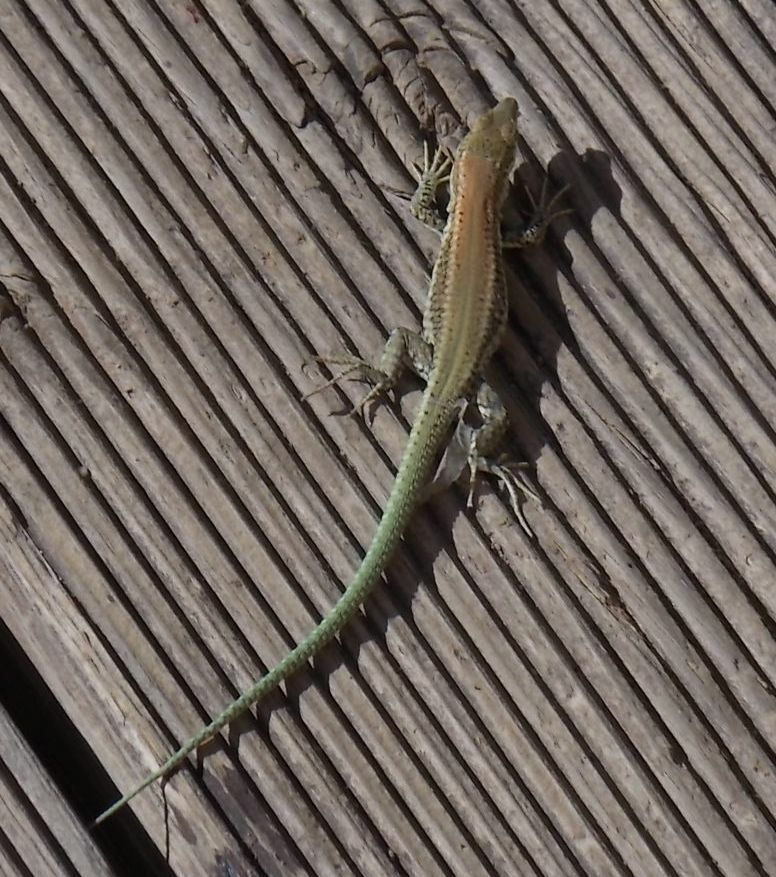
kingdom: Animalia
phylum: Chordata
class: Squamata
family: Lacertidae
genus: Podarcis
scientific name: Podarcis vaucheri
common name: Vaucher's wall lizard
